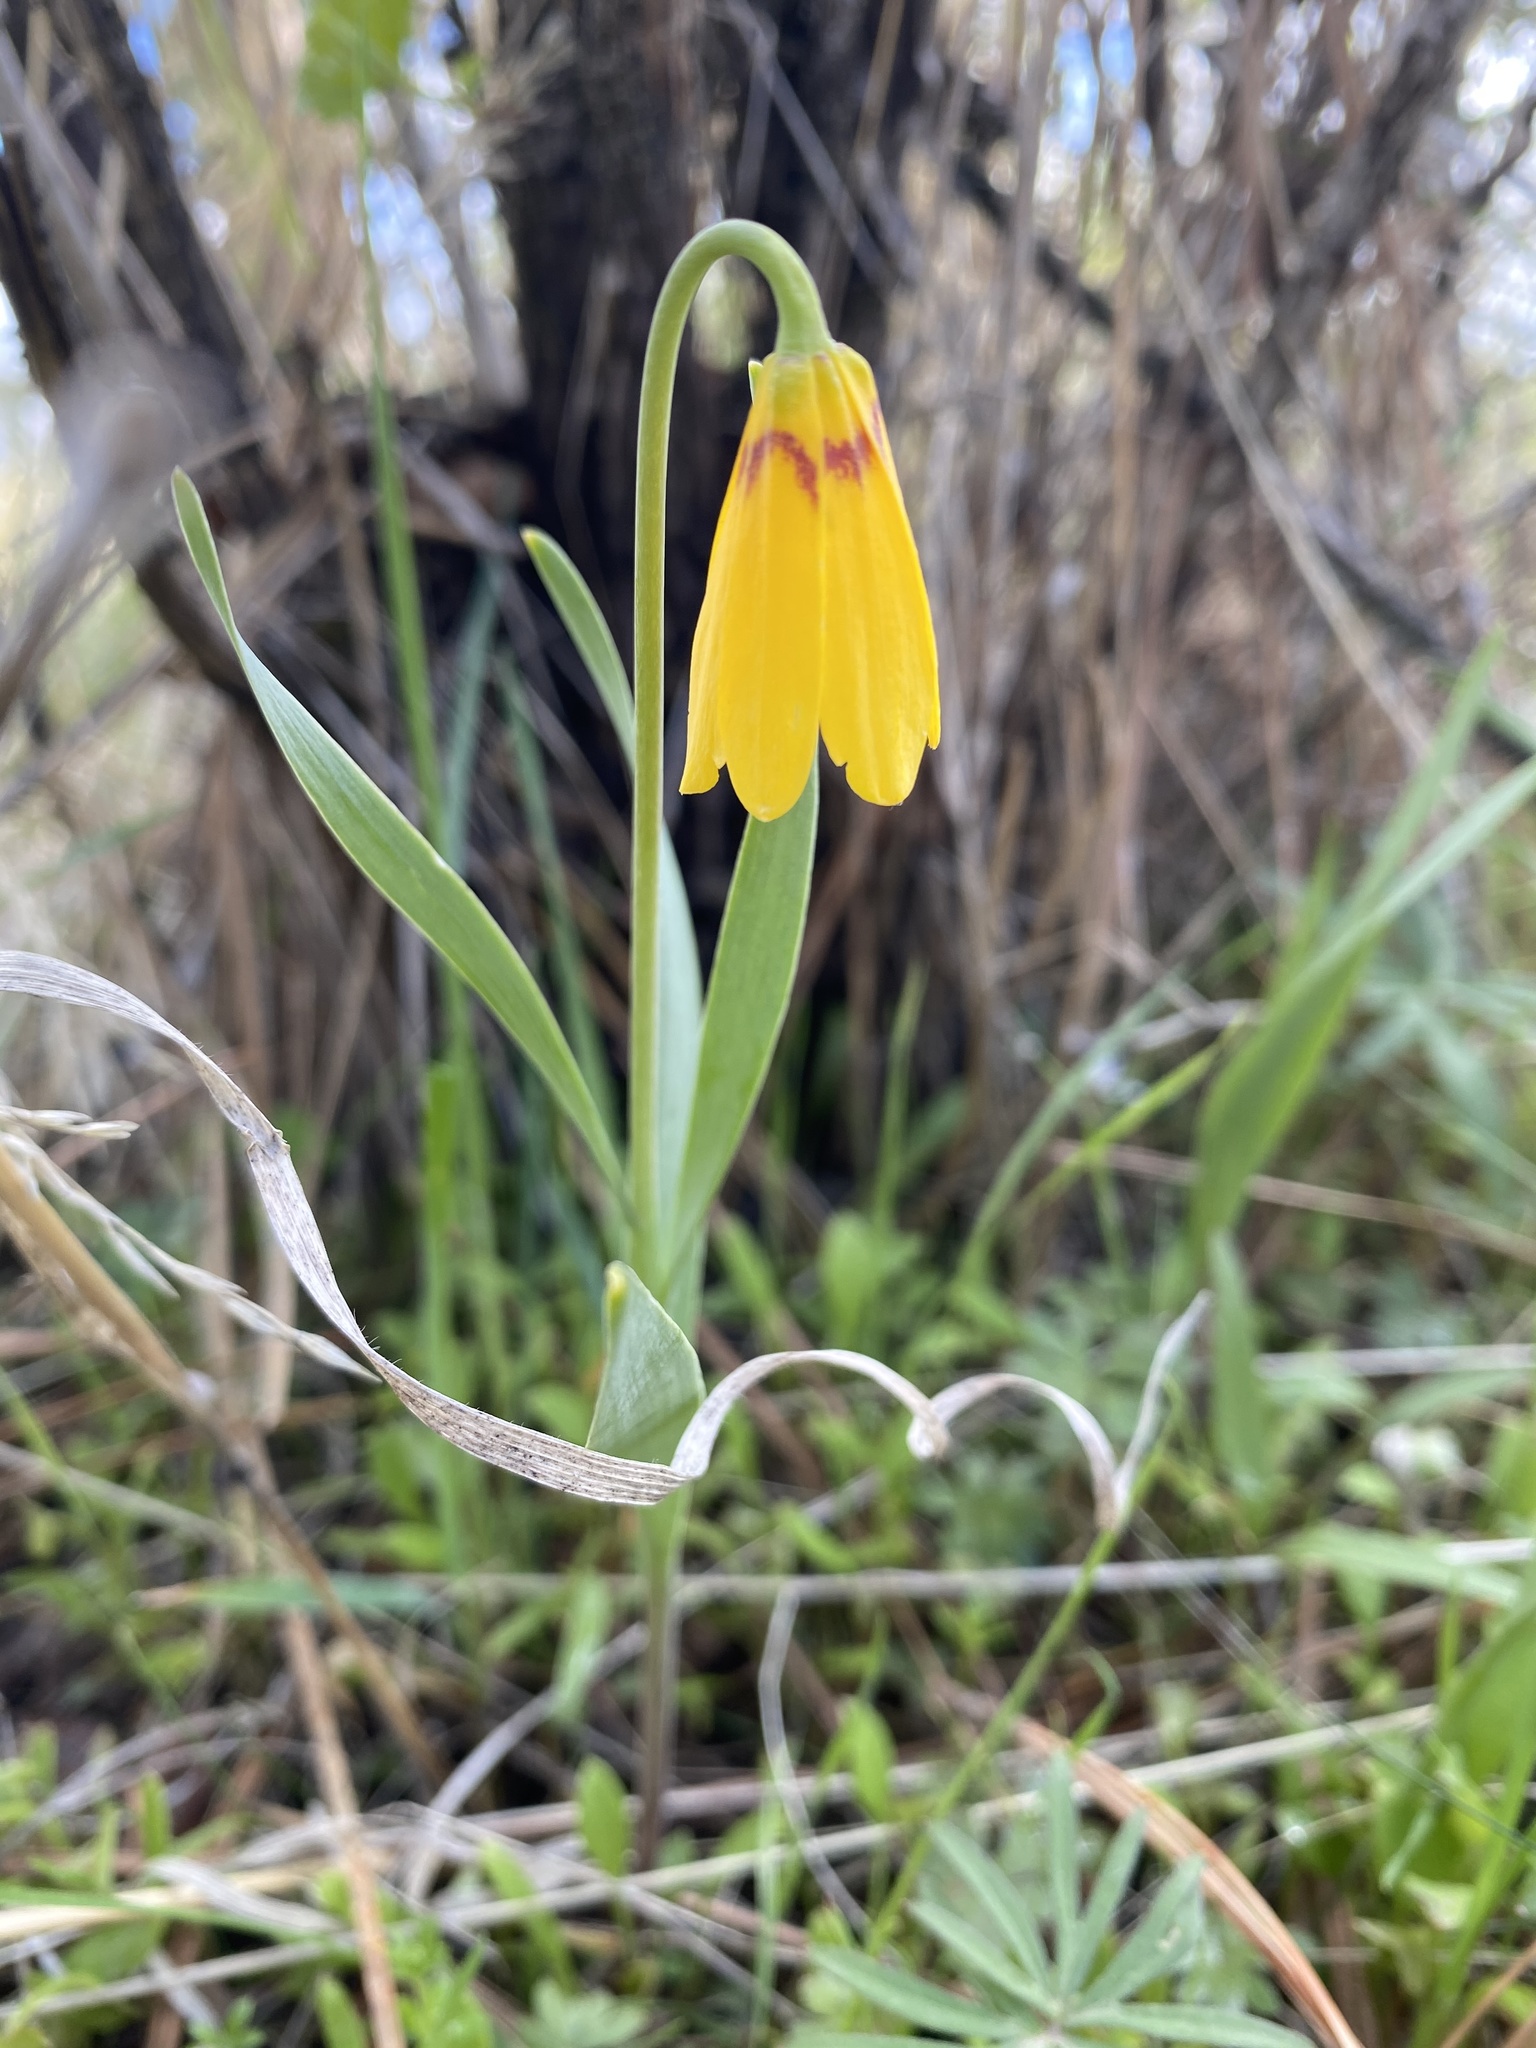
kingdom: Plantae
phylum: Tracheophyta
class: Liliopsida
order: Liliales
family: Liliaceae
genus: Fritillaria
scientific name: Fritillaria pudica
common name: Yellow fritillary
